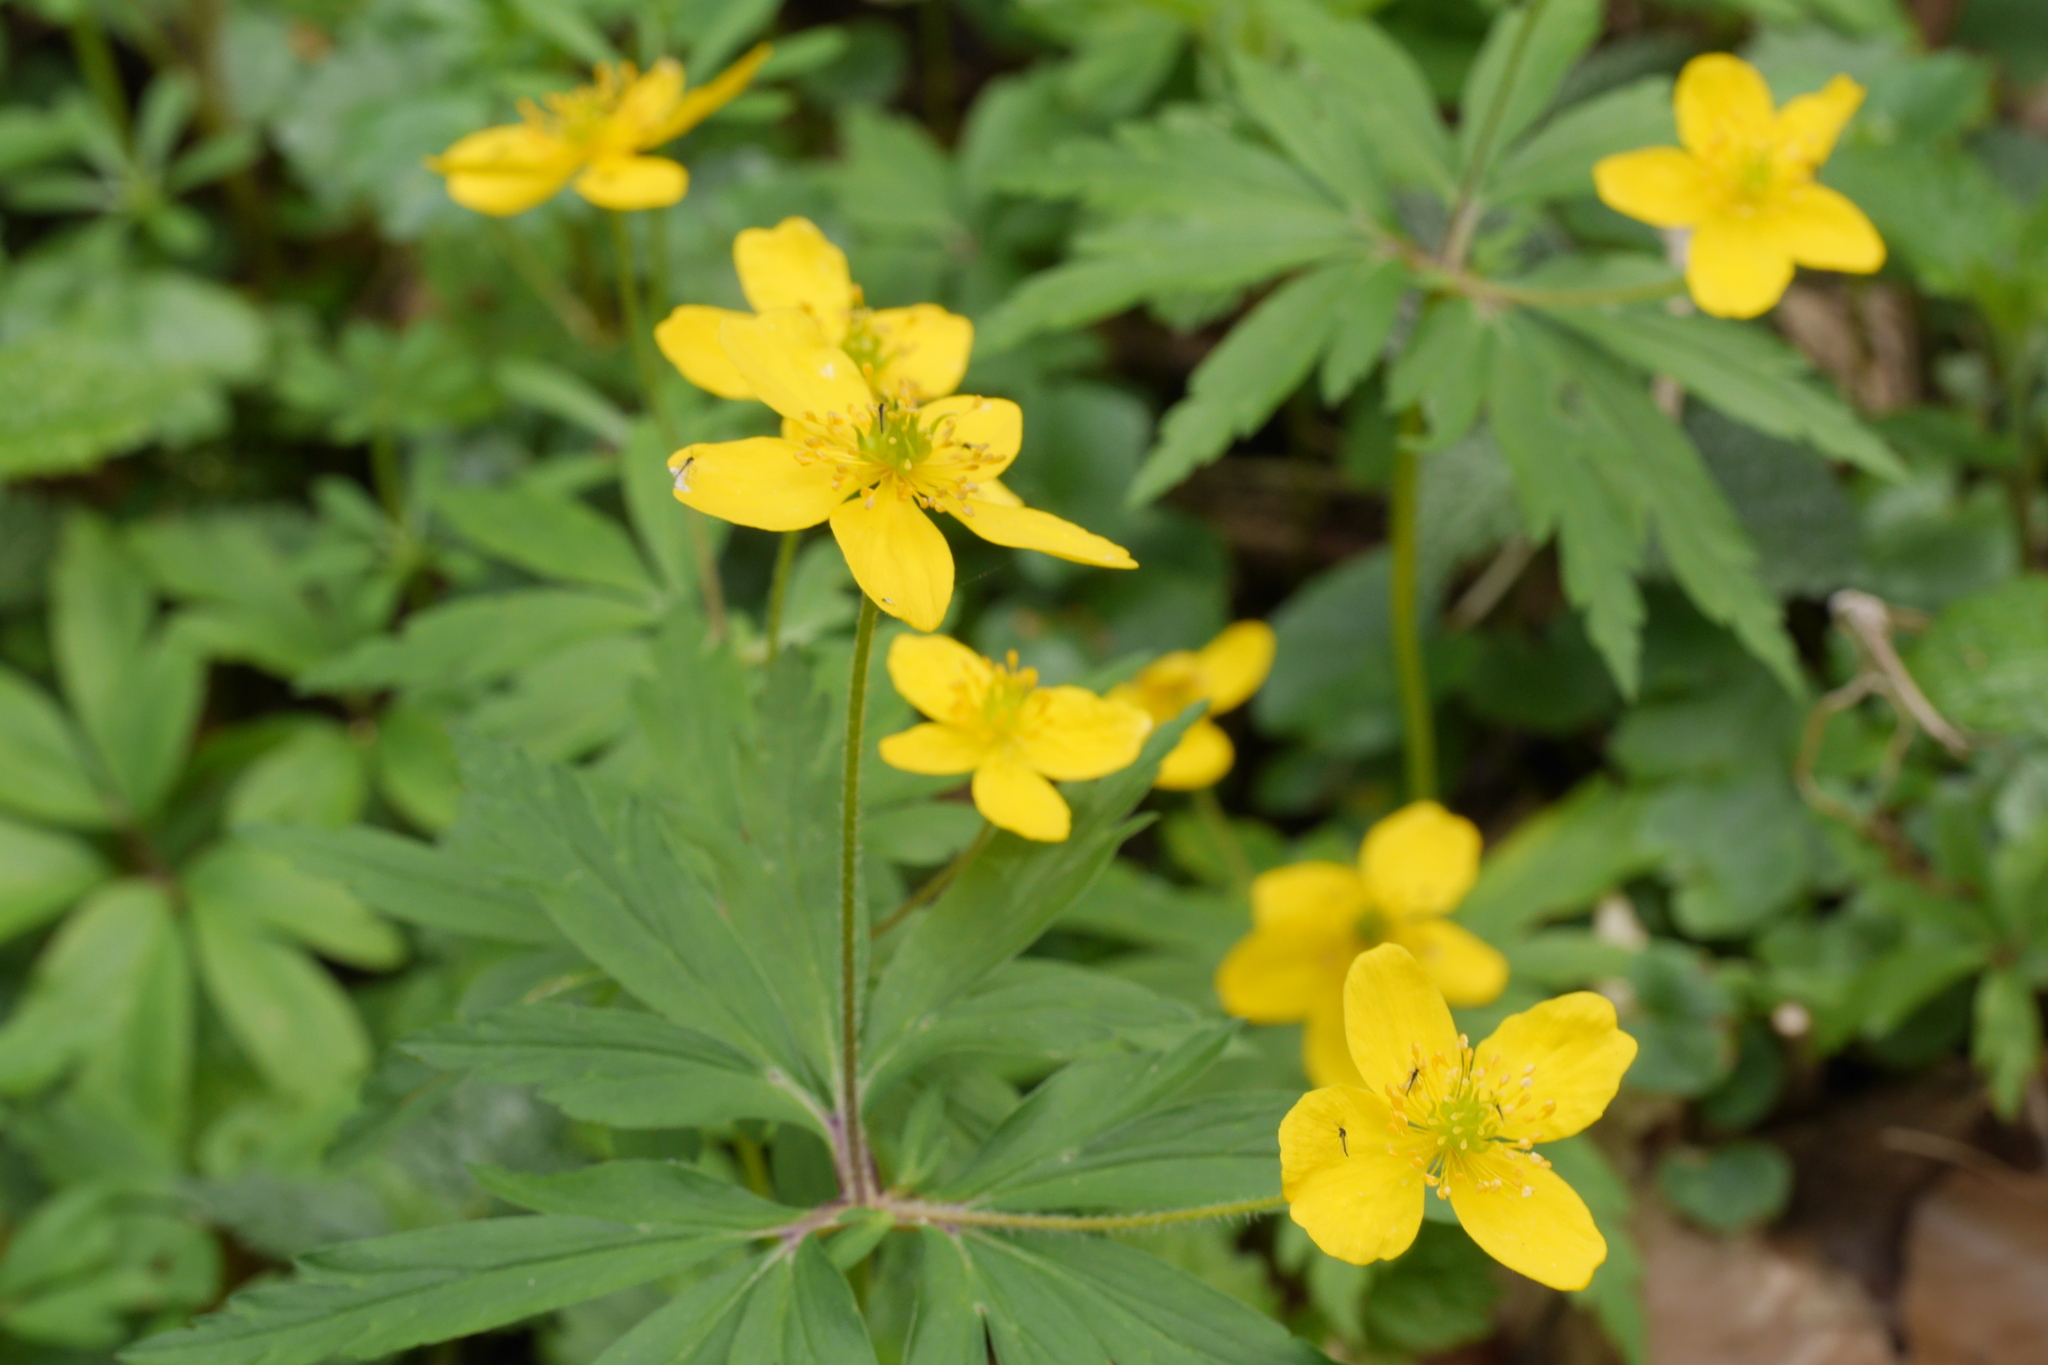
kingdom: Plantae
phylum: Tracheophyta
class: Magnoliopsida
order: Ranunculales
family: Ranunculaceae
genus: Anemone
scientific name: Anemone ranunculoides
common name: Yellow anemone
